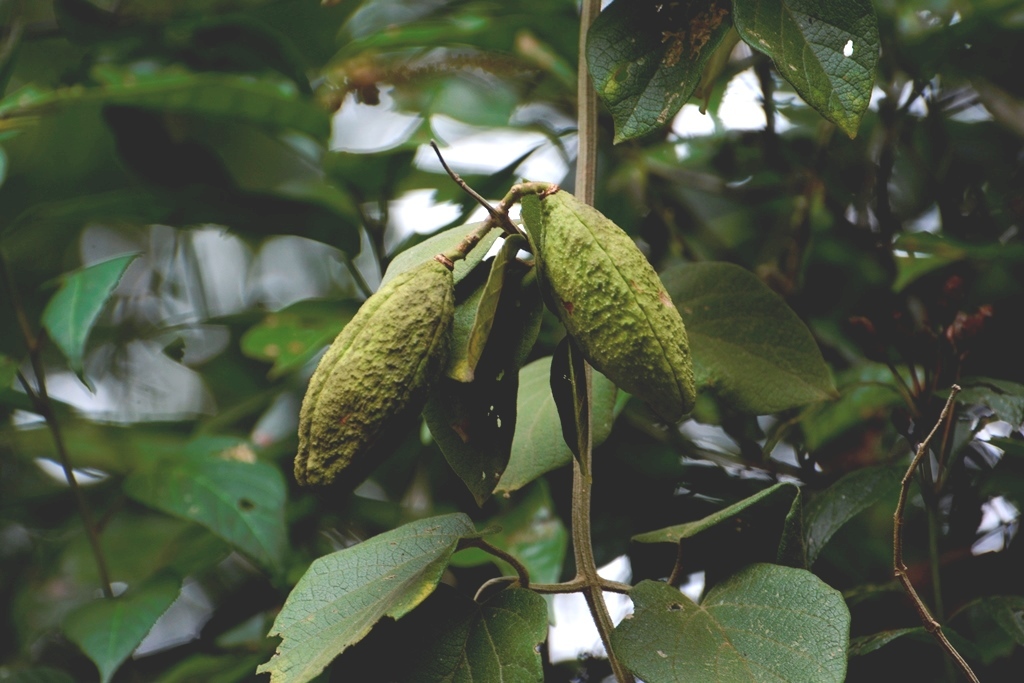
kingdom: Plantae
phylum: Tracheophyta
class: Magnoliopsida
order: Lamiales
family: Bignoniaceae
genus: Amphilophium
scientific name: Amphilophium paniculatum
